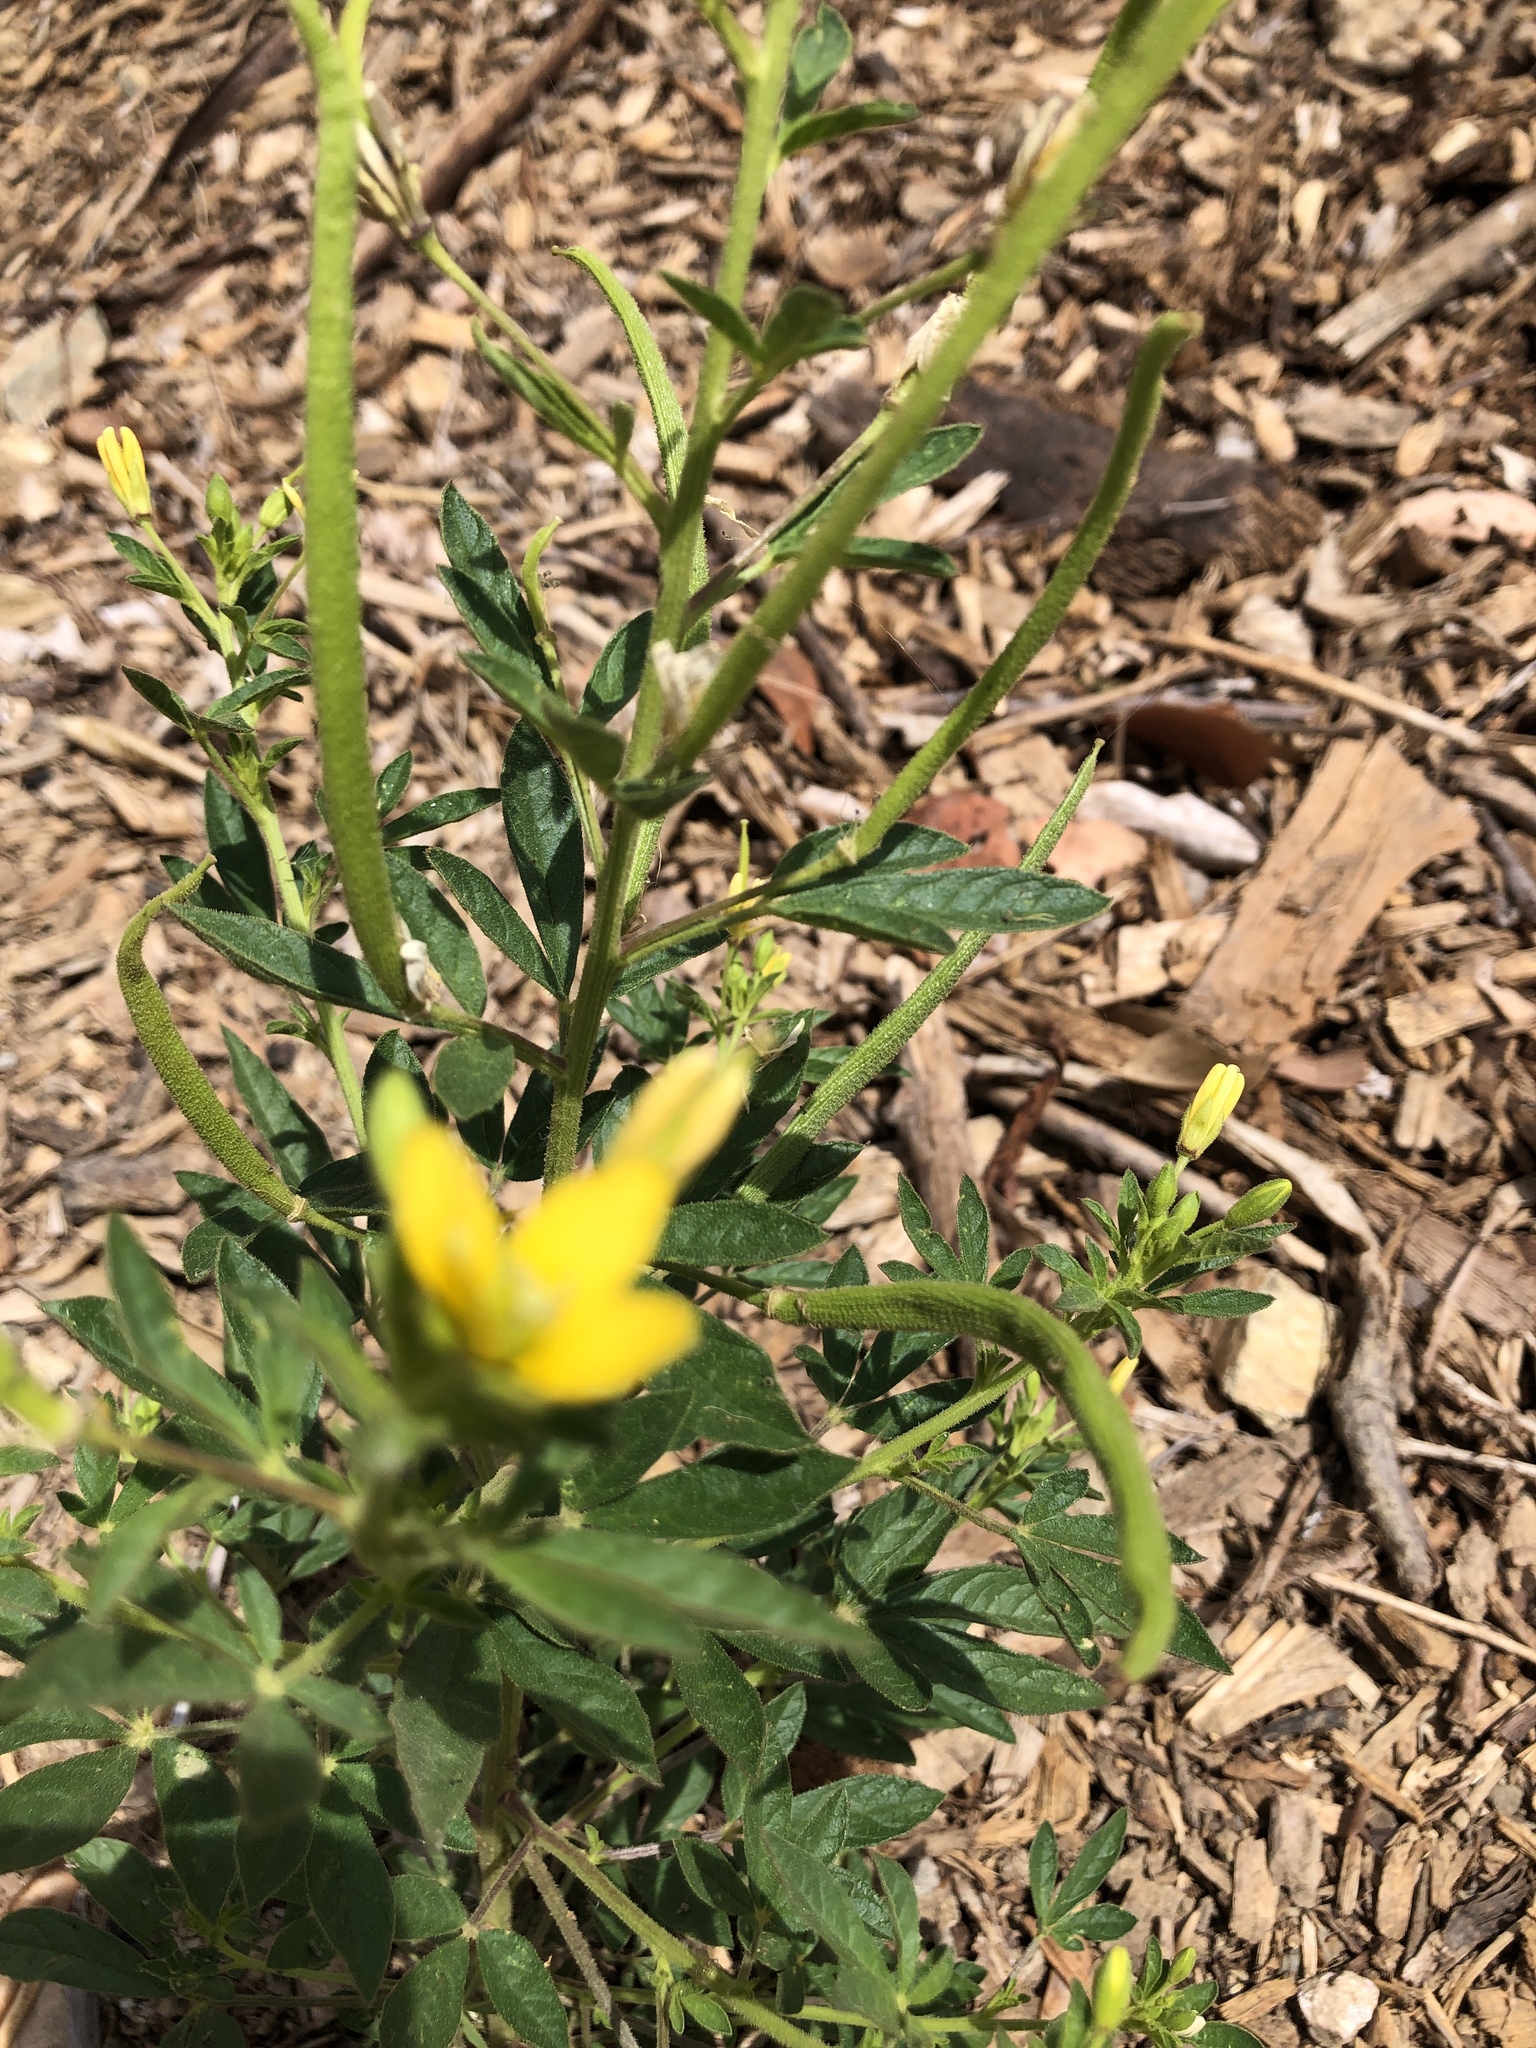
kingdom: Plantae
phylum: Tracheophyta
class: Magnoliopsida
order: Brassicales
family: Cleomaceae
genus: Arivela
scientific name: Arivela viscosa
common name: Asian spiderflower
